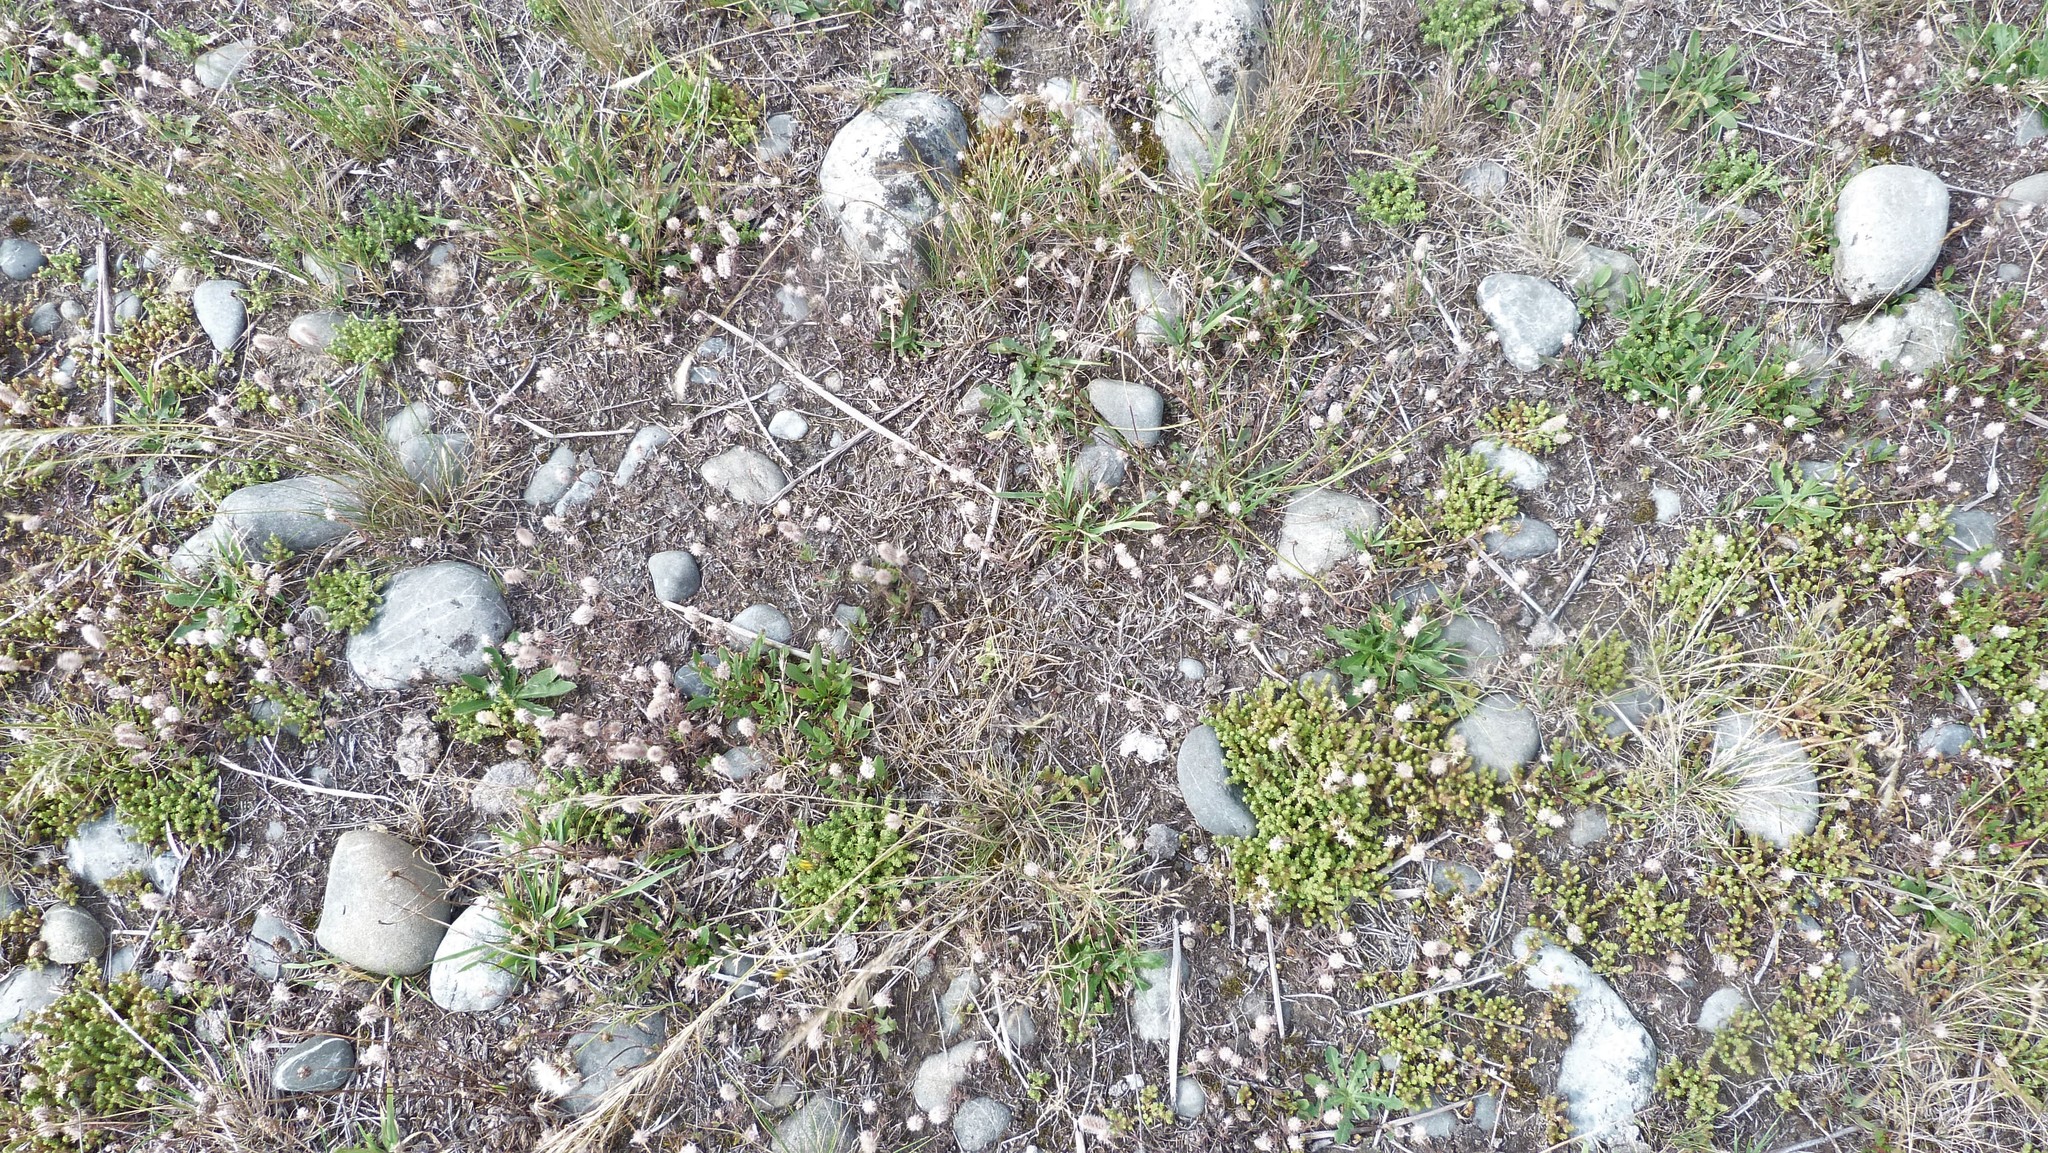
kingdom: Plantae
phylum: Tracheophyta
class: Magnoliopsida
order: Saxifragales
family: Crassulaceae
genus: Sedum
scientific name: Sedum acre
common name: Biting stonecrop
